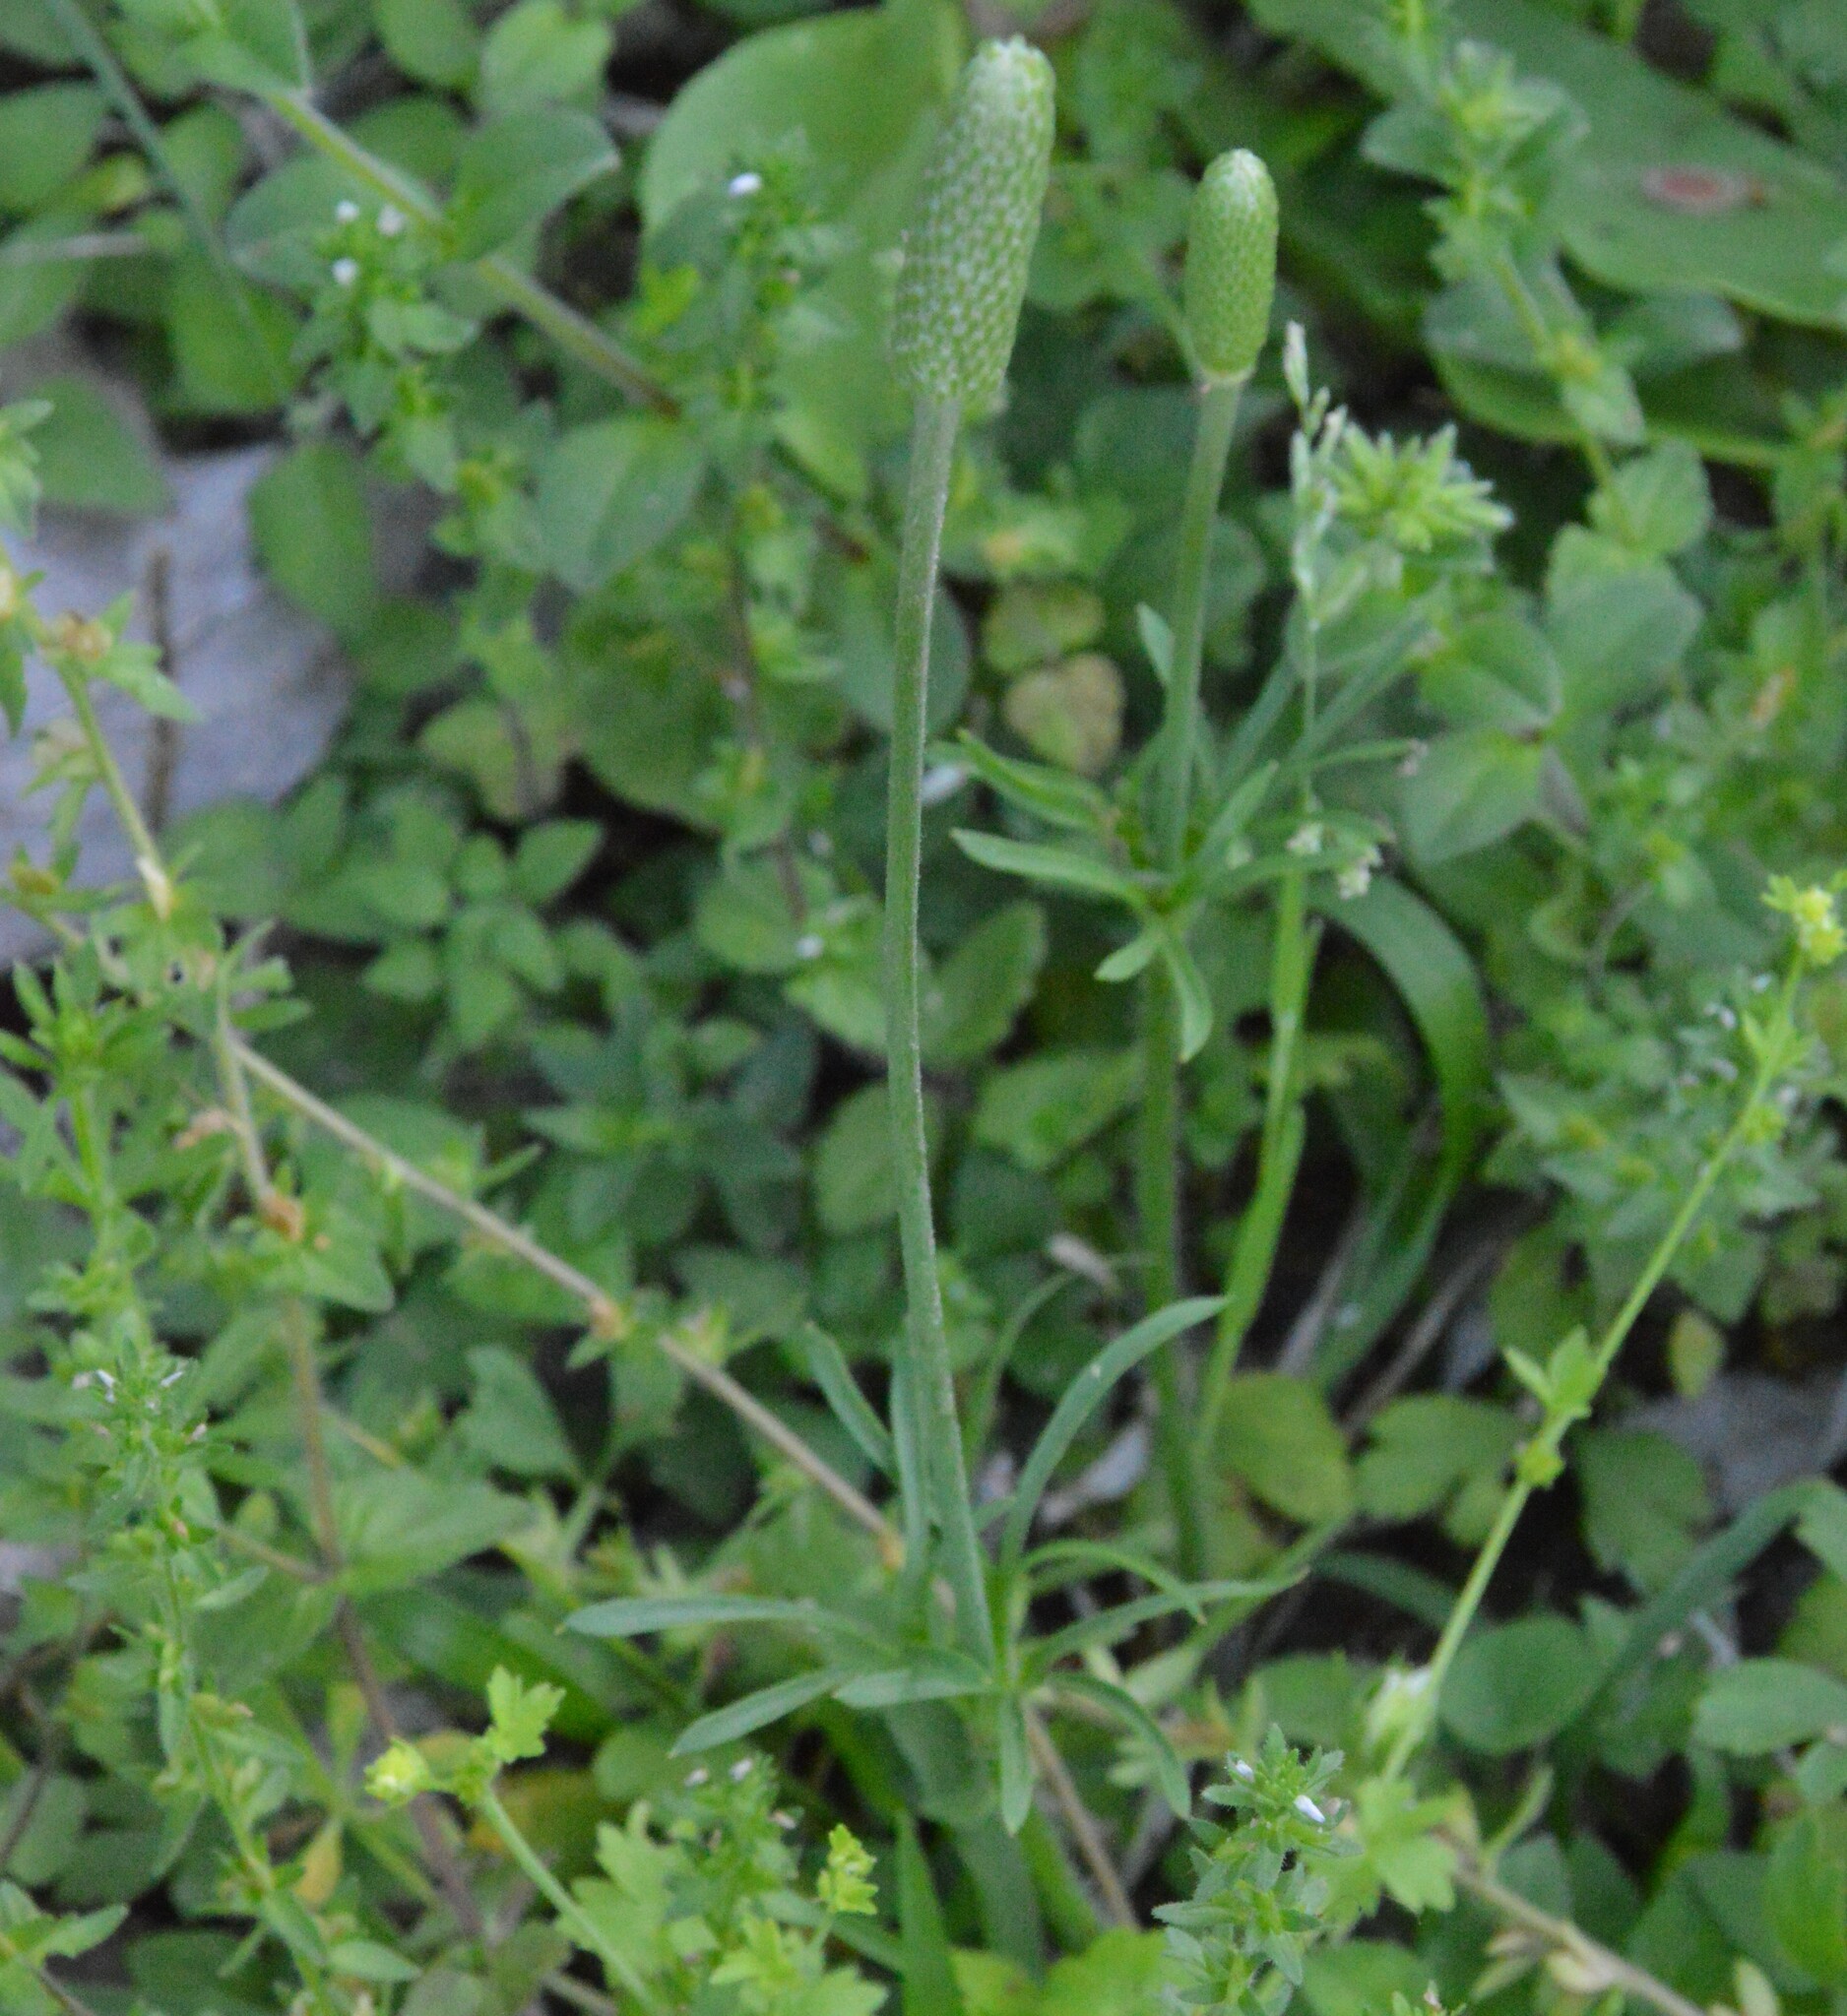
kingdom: Plantae
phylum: Tracheophyta
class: Magnoliopsida
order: Ranunculales
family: Ranunculaceae
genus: Anemone
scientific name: Anemone berlandieri
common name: Ten-petal anemone
